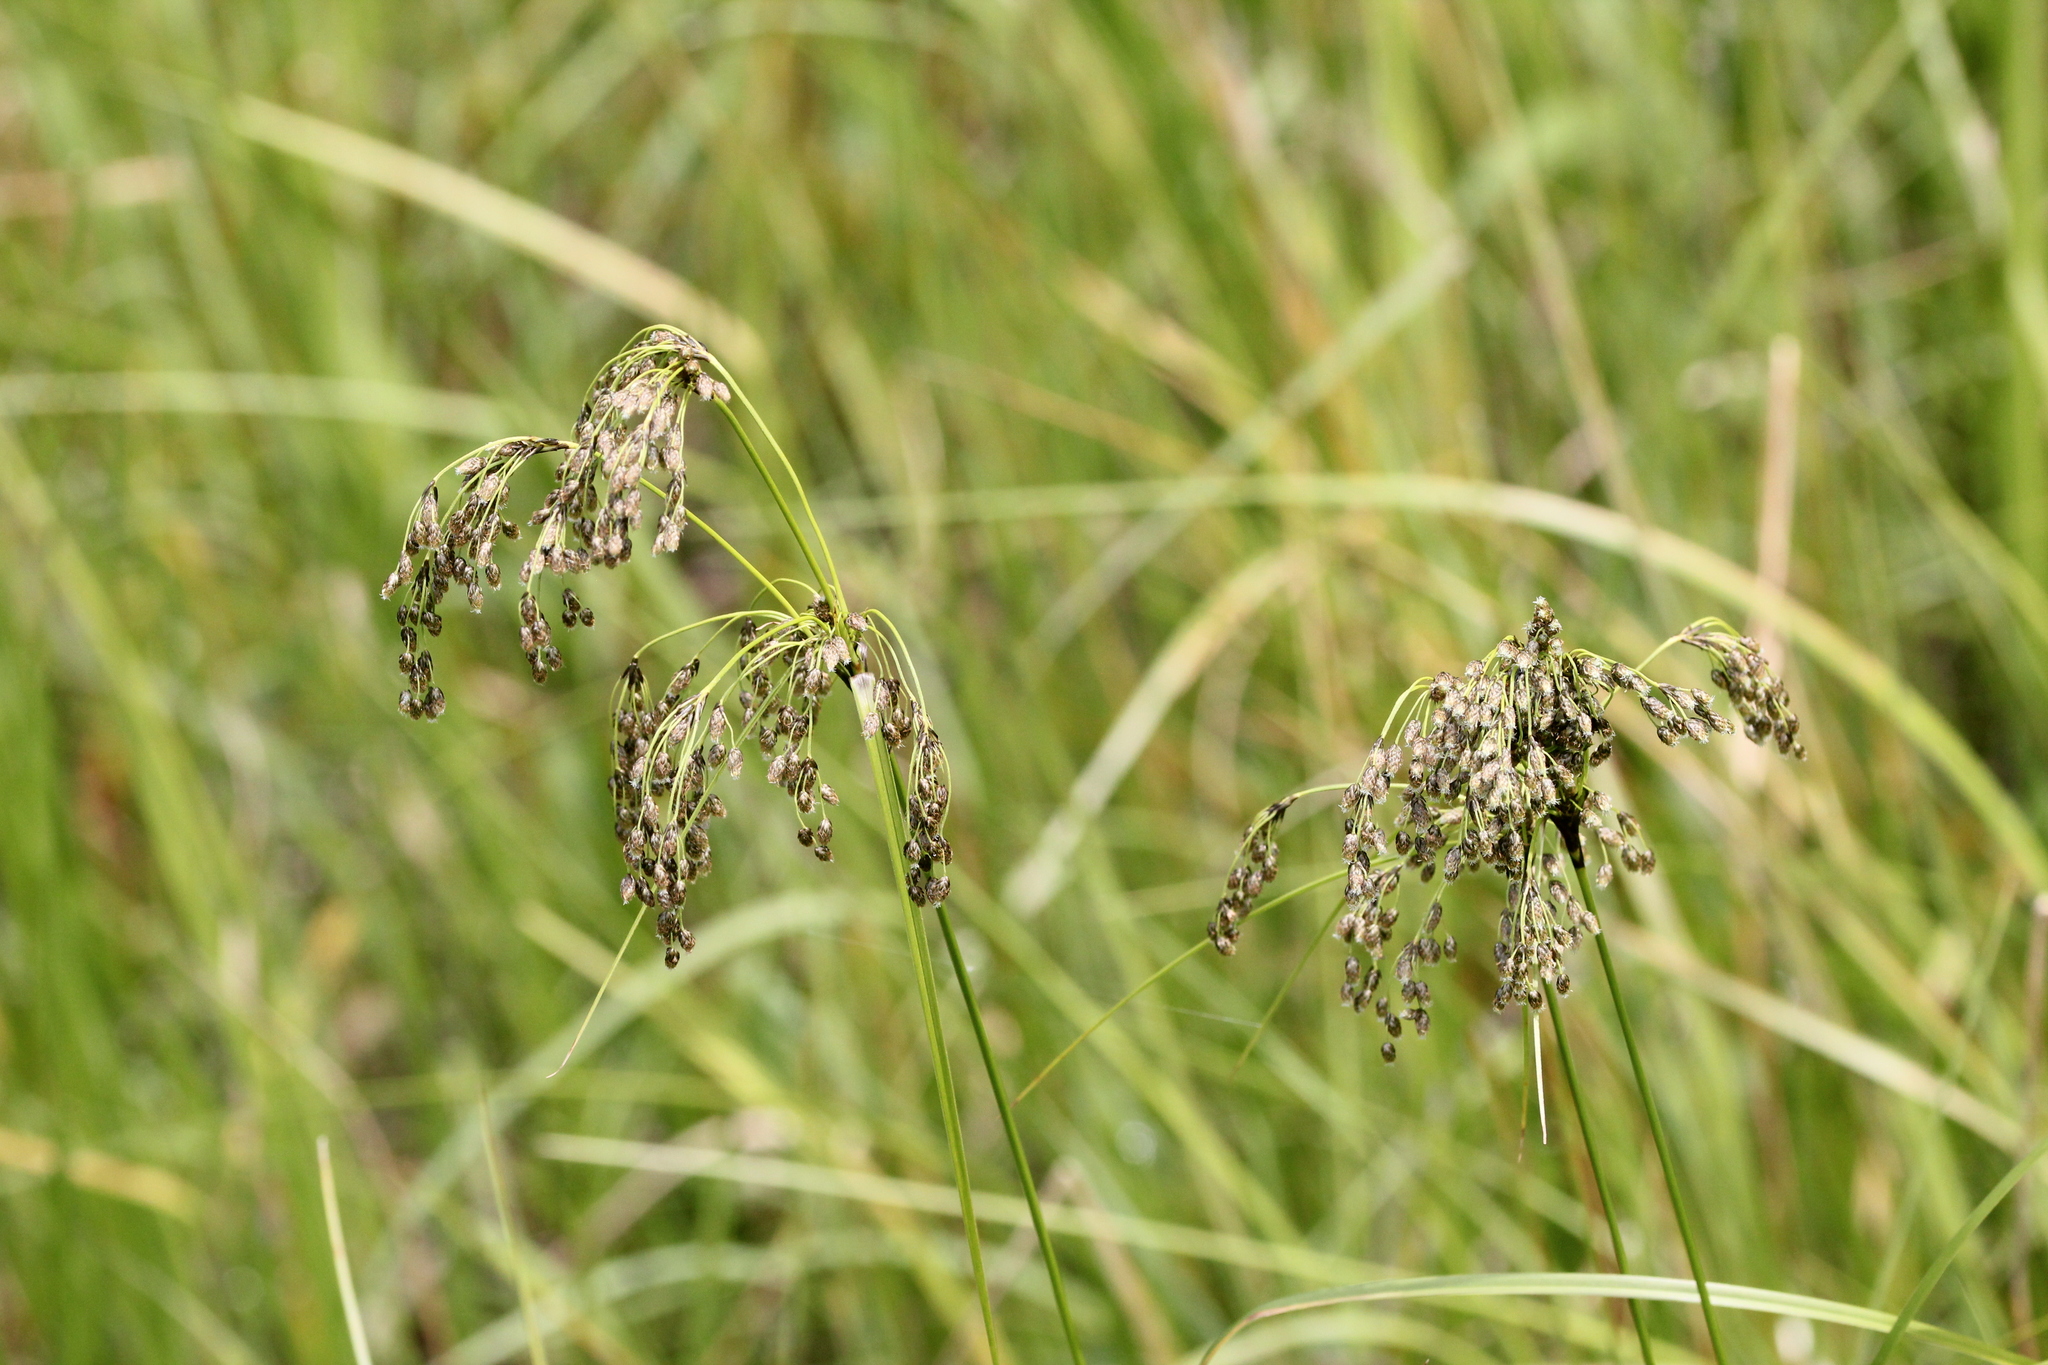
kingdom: Plantae
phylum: Tracheophyta
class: Liliopsida
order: Poales
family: Cyperaceae
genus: Scirpus
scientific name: Scirpus atrocinctus
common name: Black-girdled bulrush
